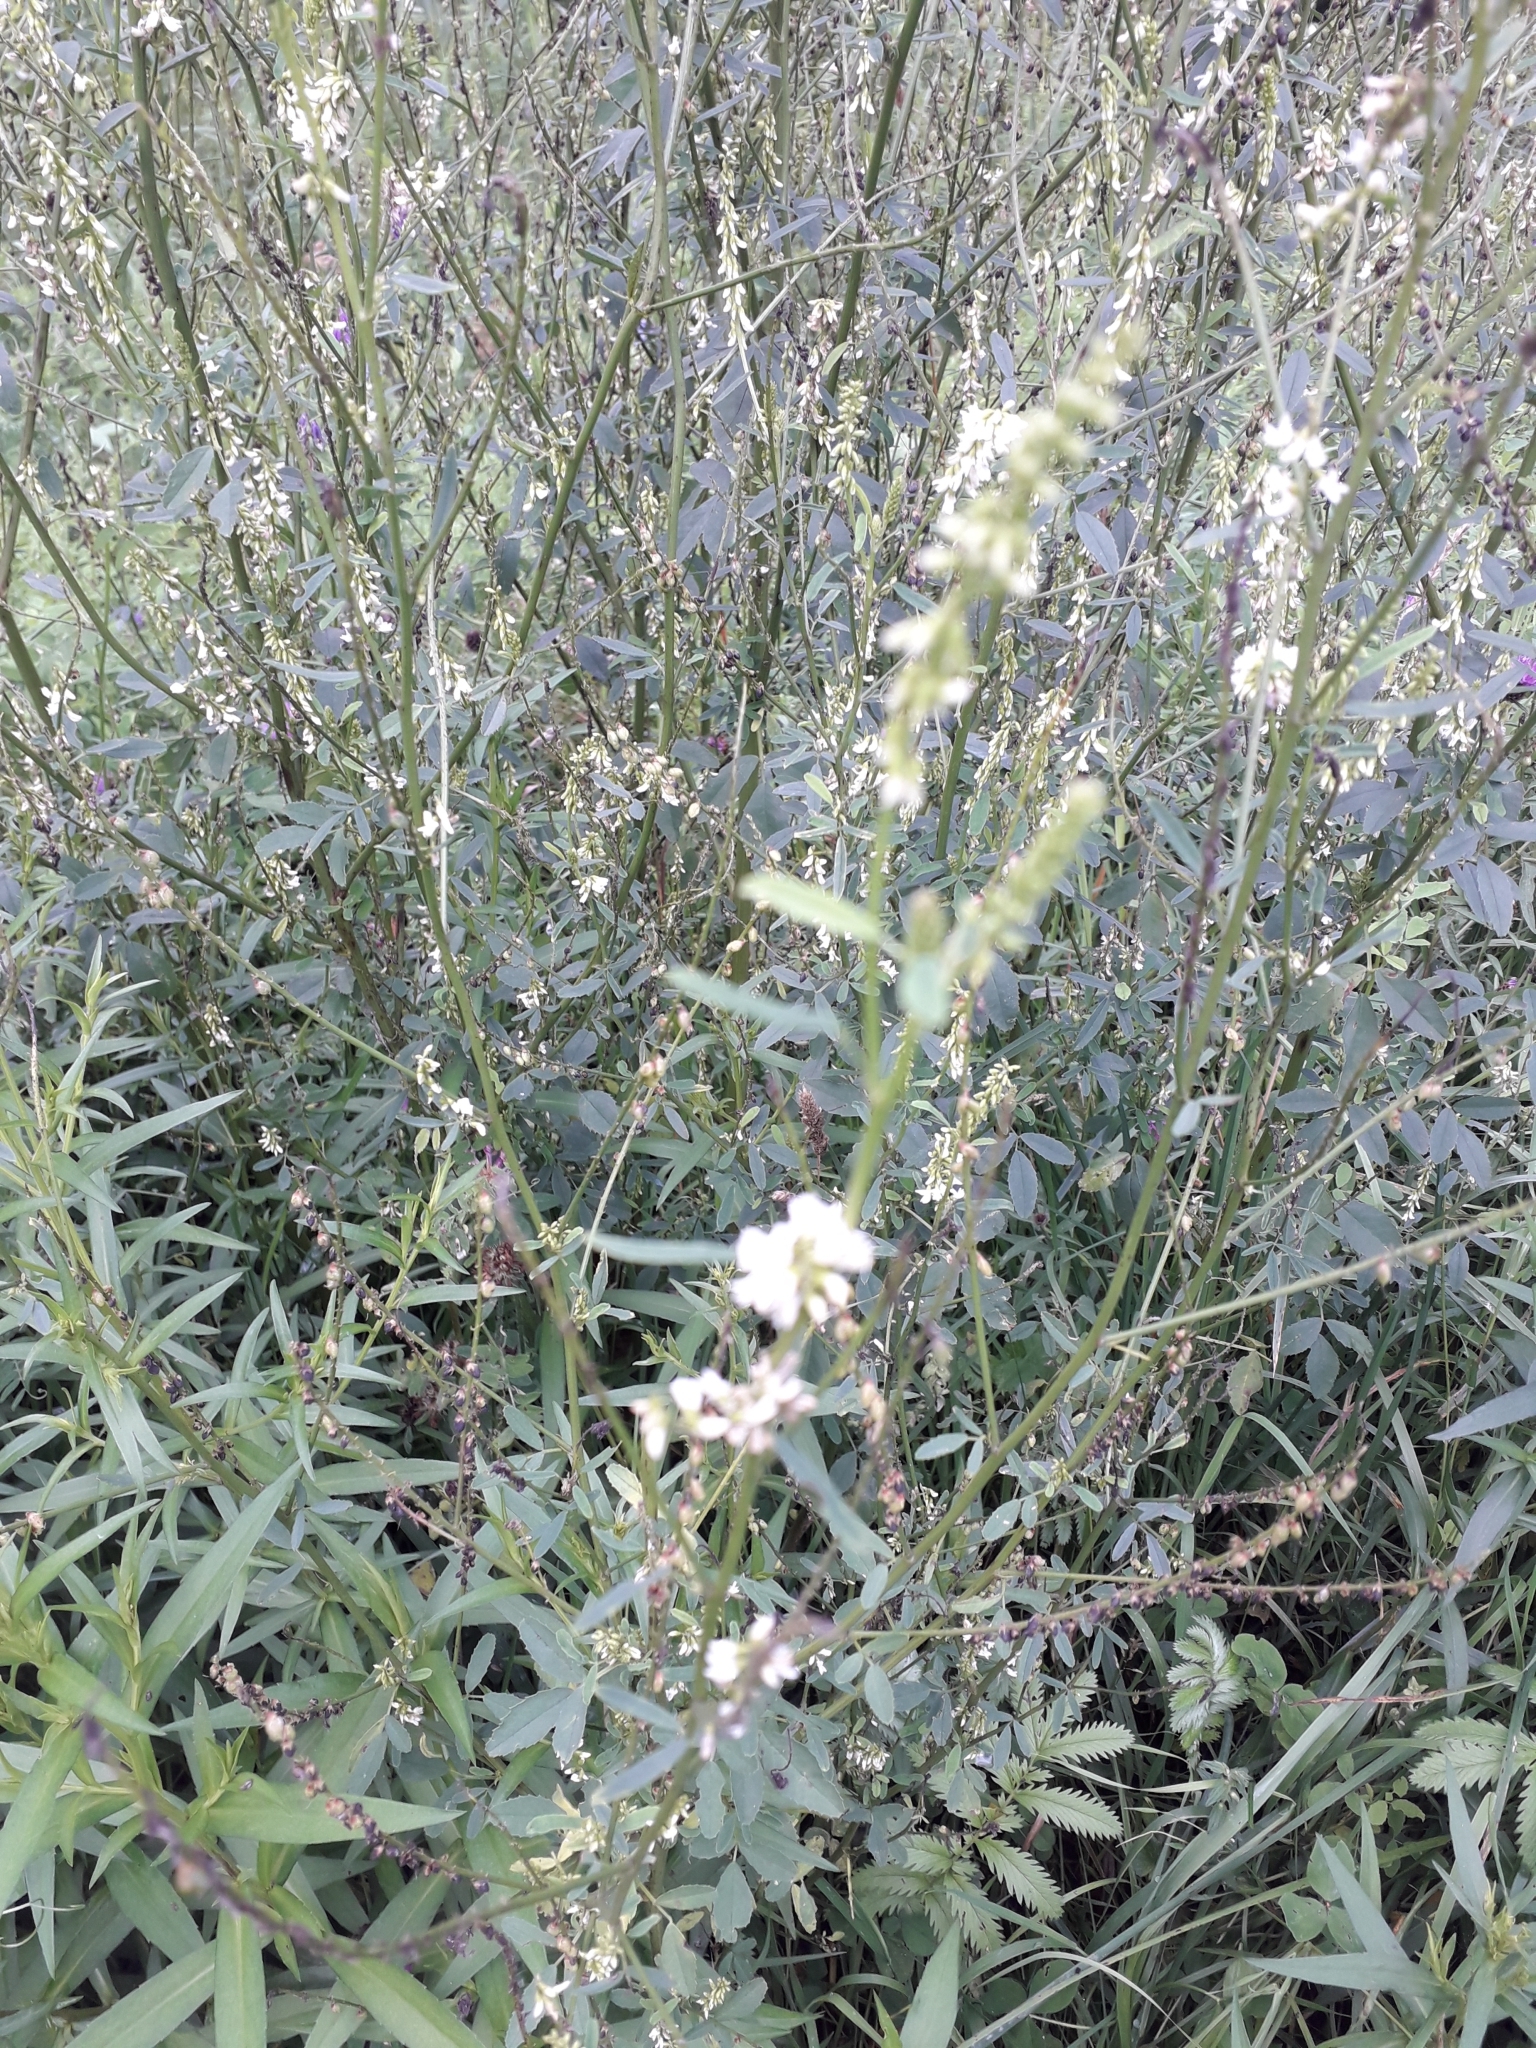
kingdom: Plantae
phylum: Tracheophyta
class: Magnoliopsida
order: Fabales
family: Fabaceae
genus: Melilotus
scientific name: Melilotus albus
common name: White melilot
